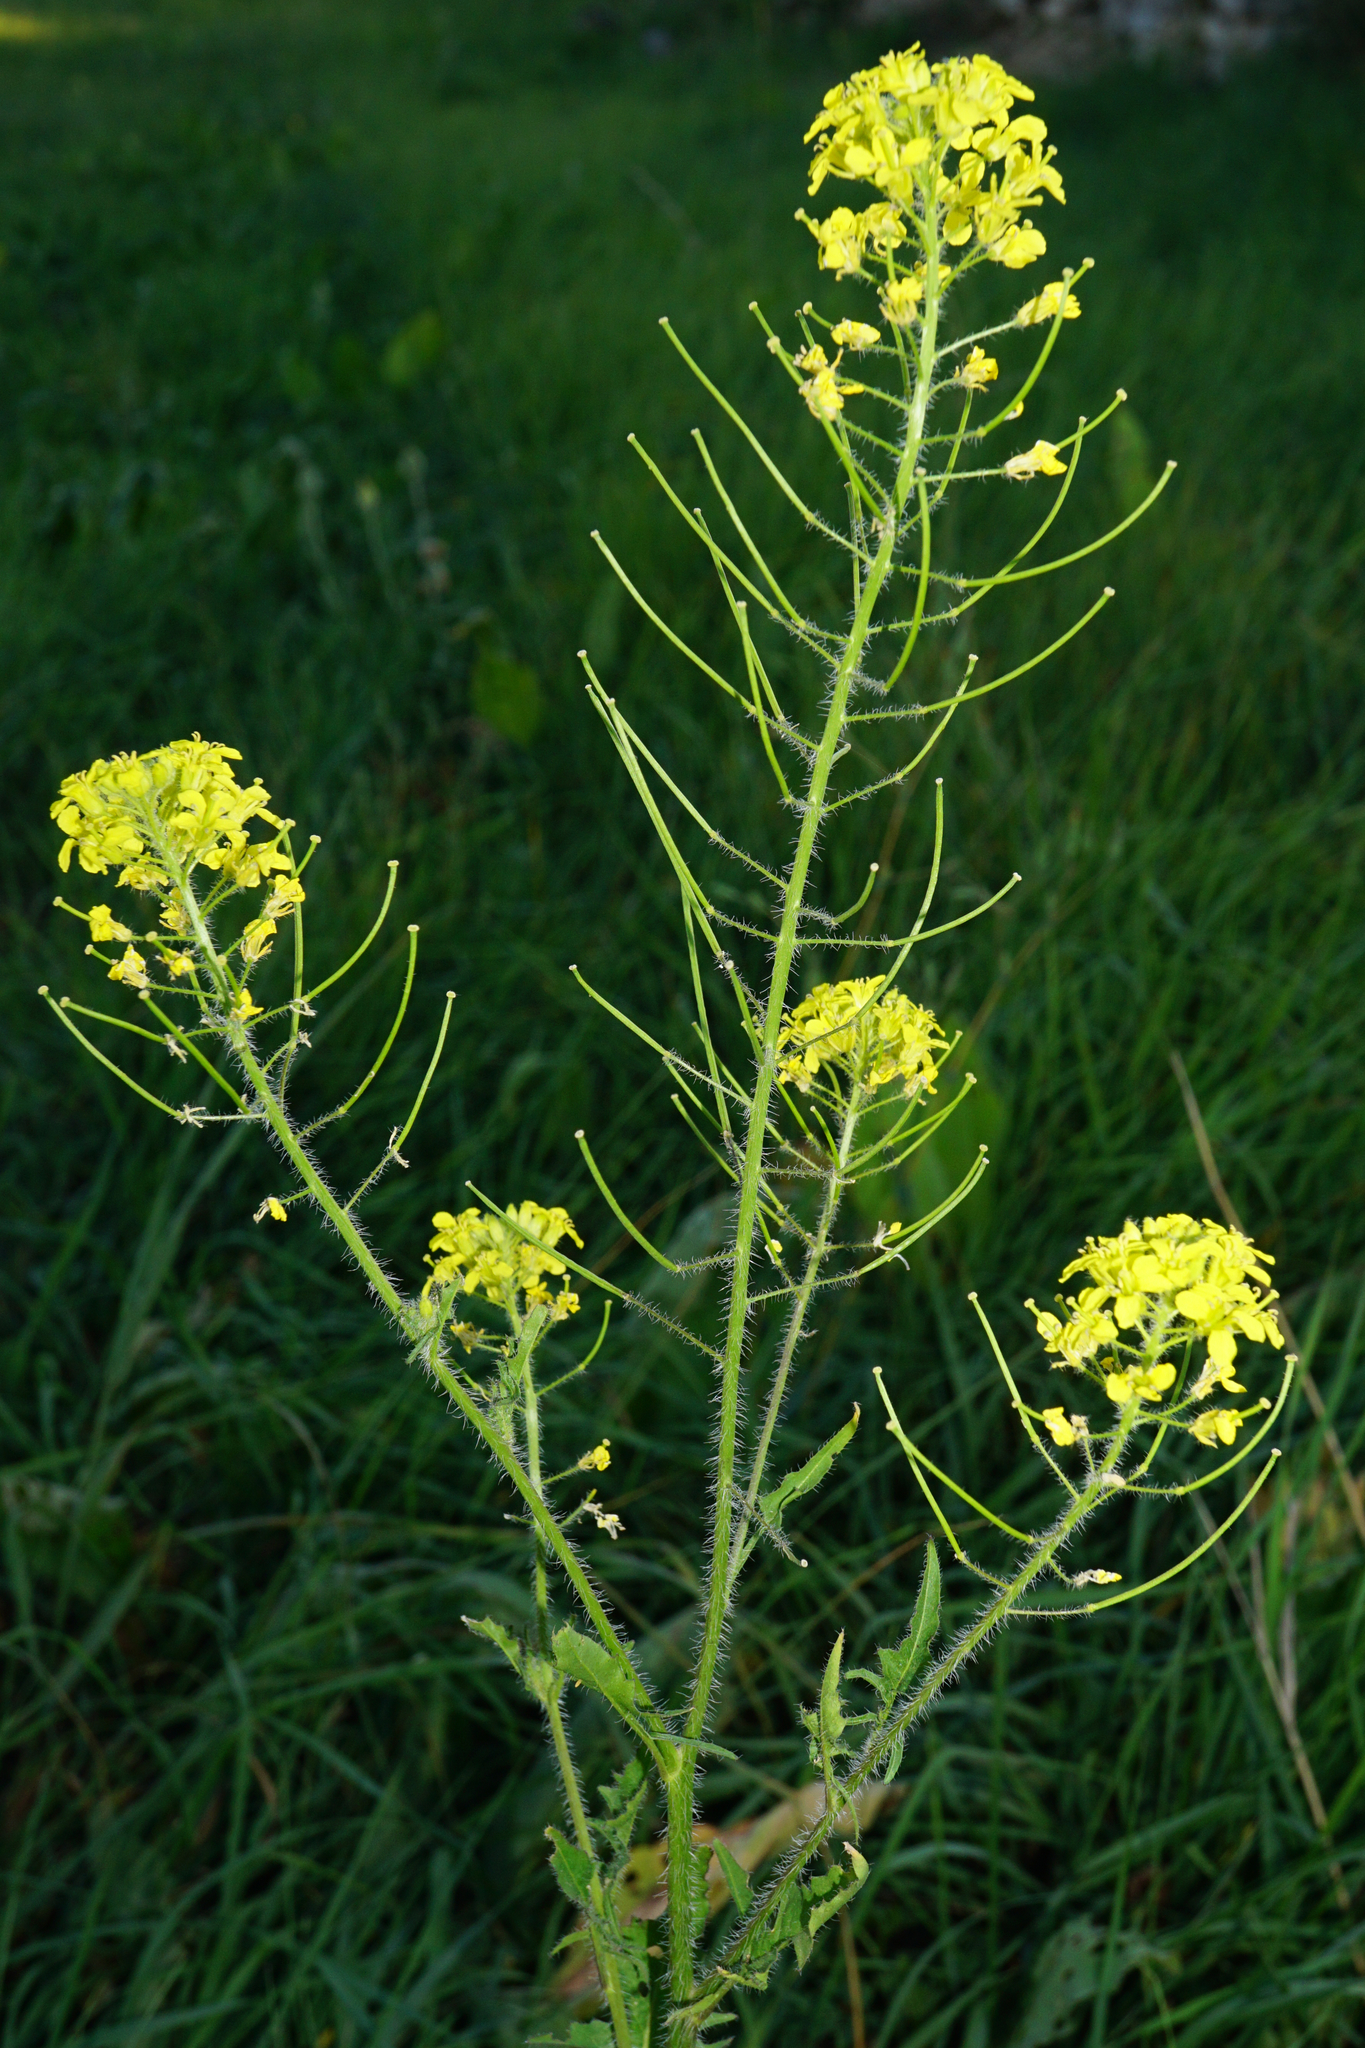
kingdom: Plantae
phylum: Tracheophyta
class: Magnoliopsida
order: Brassicales
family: Brassicaceae
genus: Sisymbrium
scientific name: Sisymbrium loeselii
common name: False london-rocket
